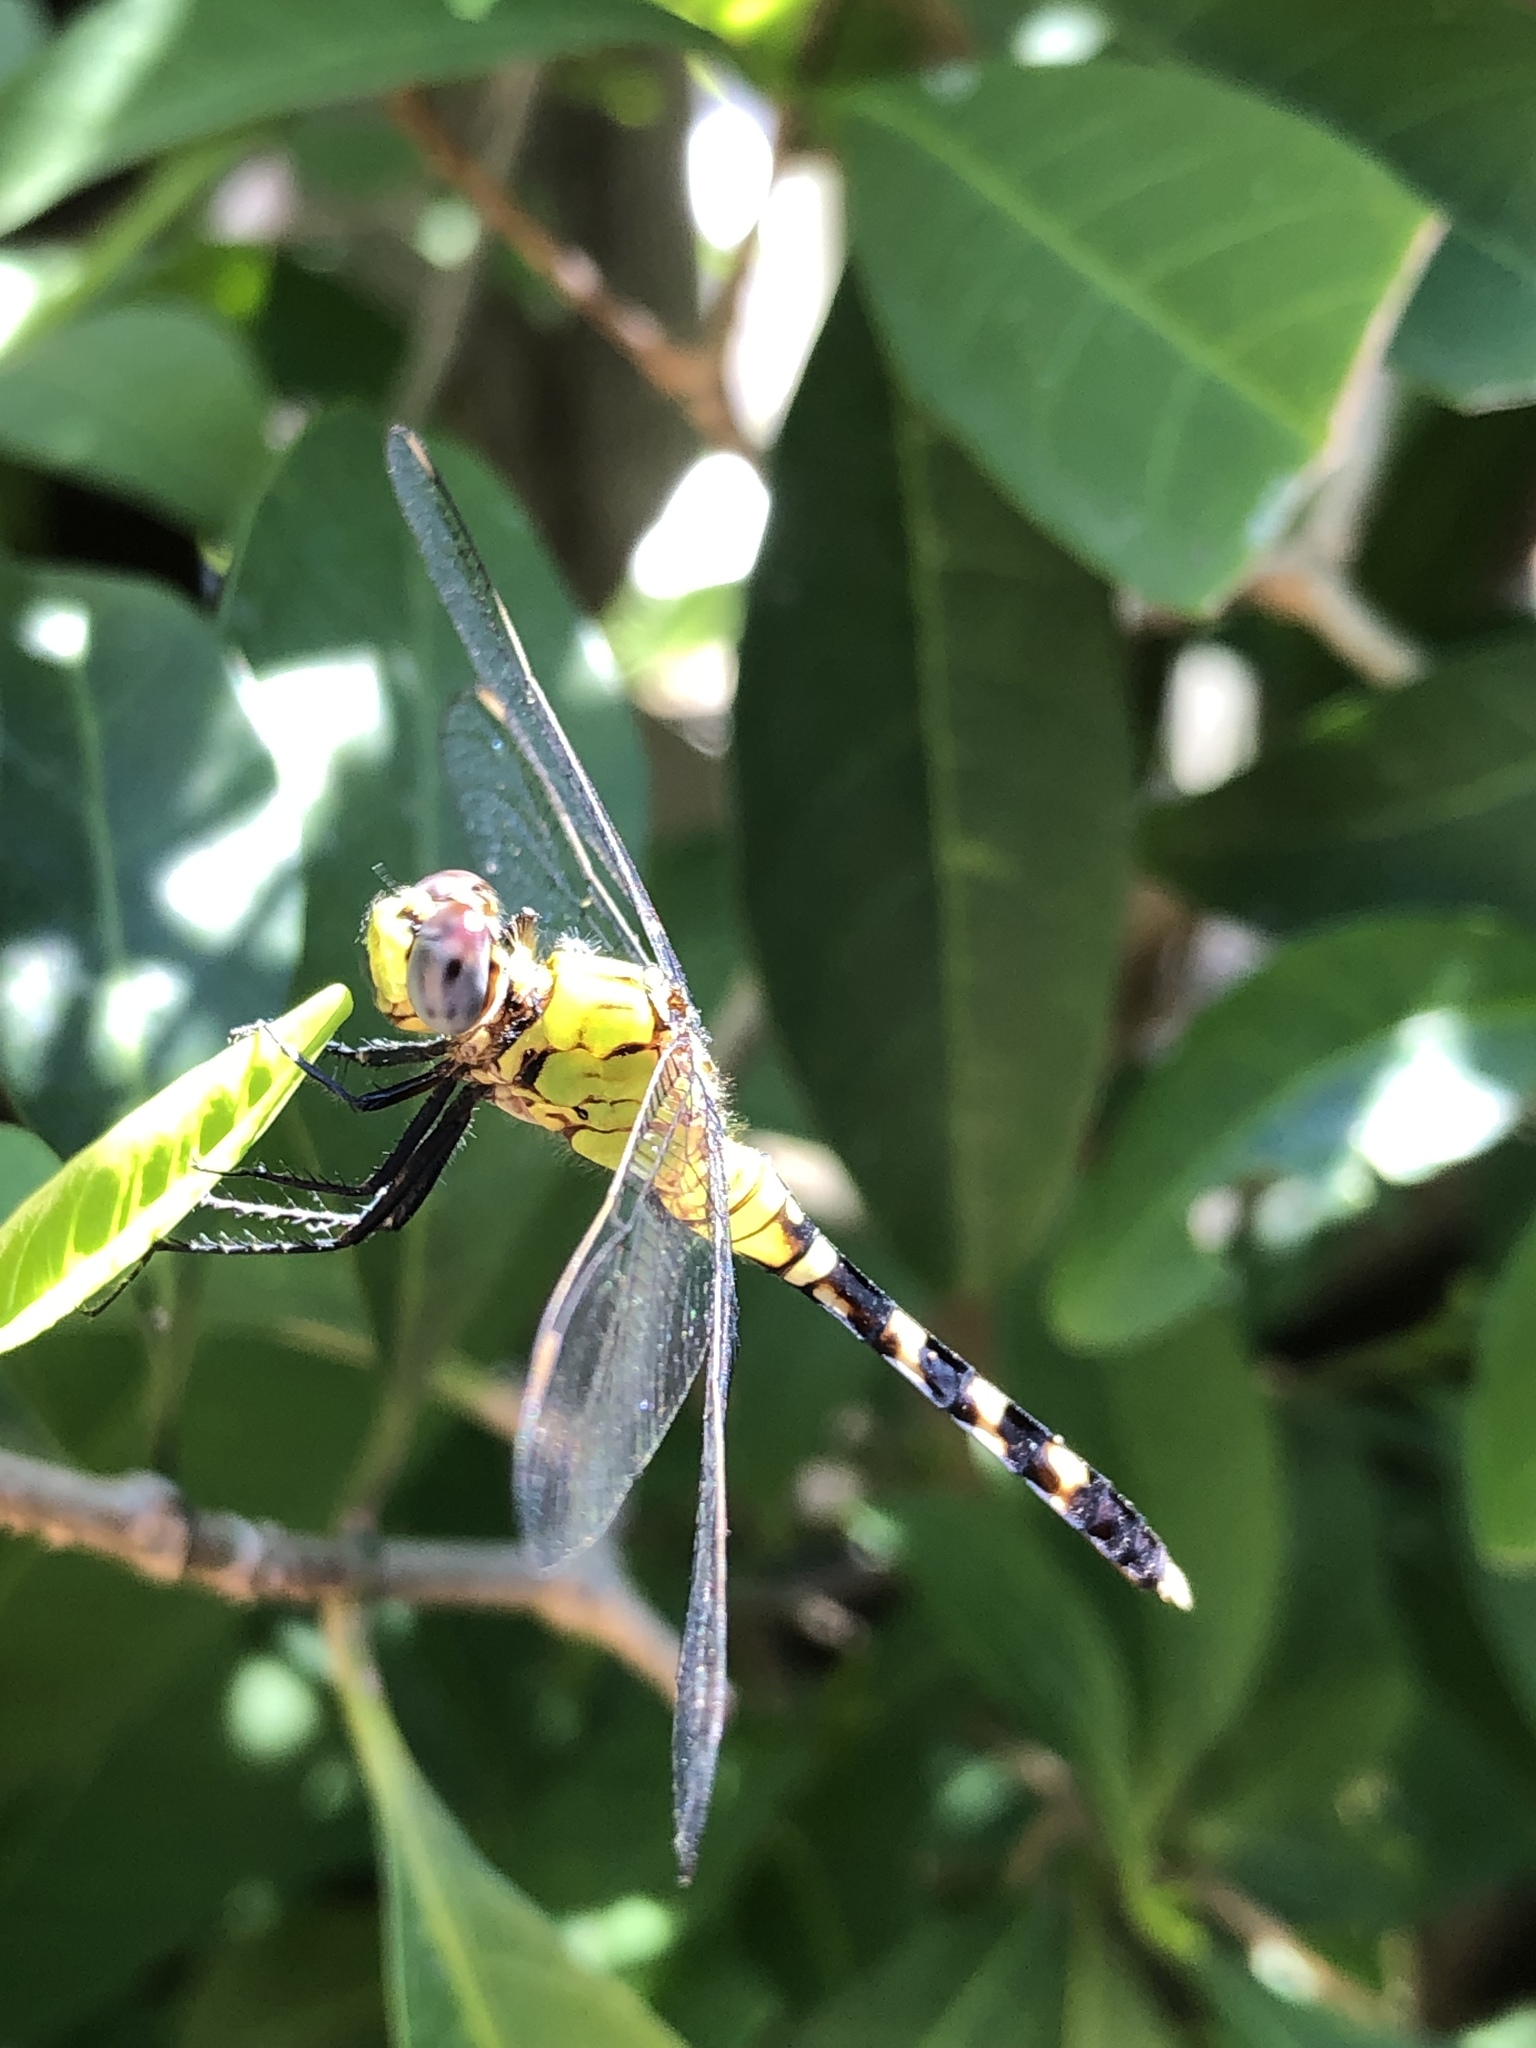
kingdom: Animalia
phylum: Arthropoda
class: Insecta
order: Odonata
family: Libellulidae
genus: Erythemis
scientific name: Erythemis simplicicollis
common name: Eastern pondhawk
